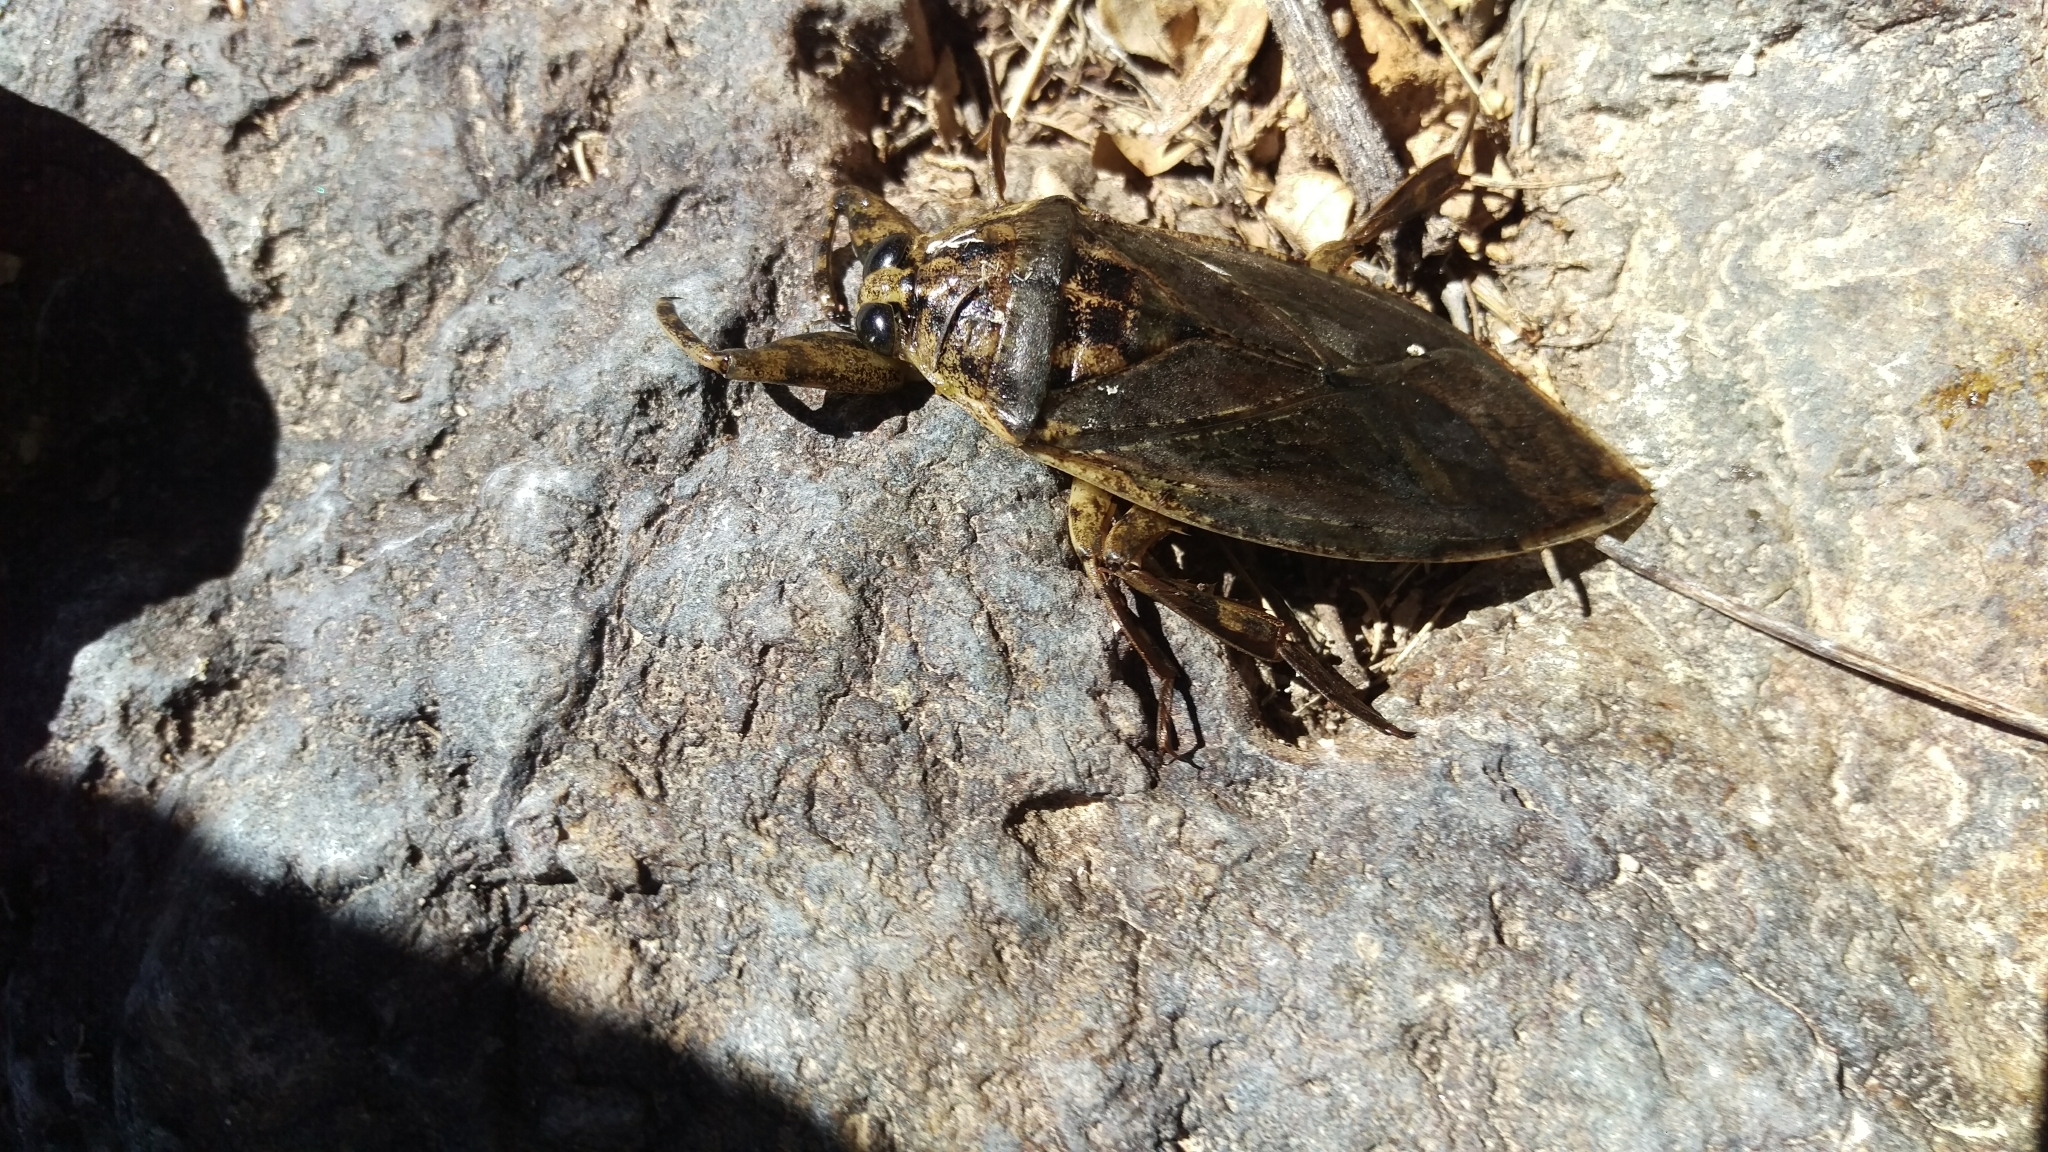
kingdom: Animalia
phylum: Arthropoda
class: Insecta
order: Hemiptera
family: Belostomatidae
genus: Lethocerus
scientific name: Lethocerus medius
